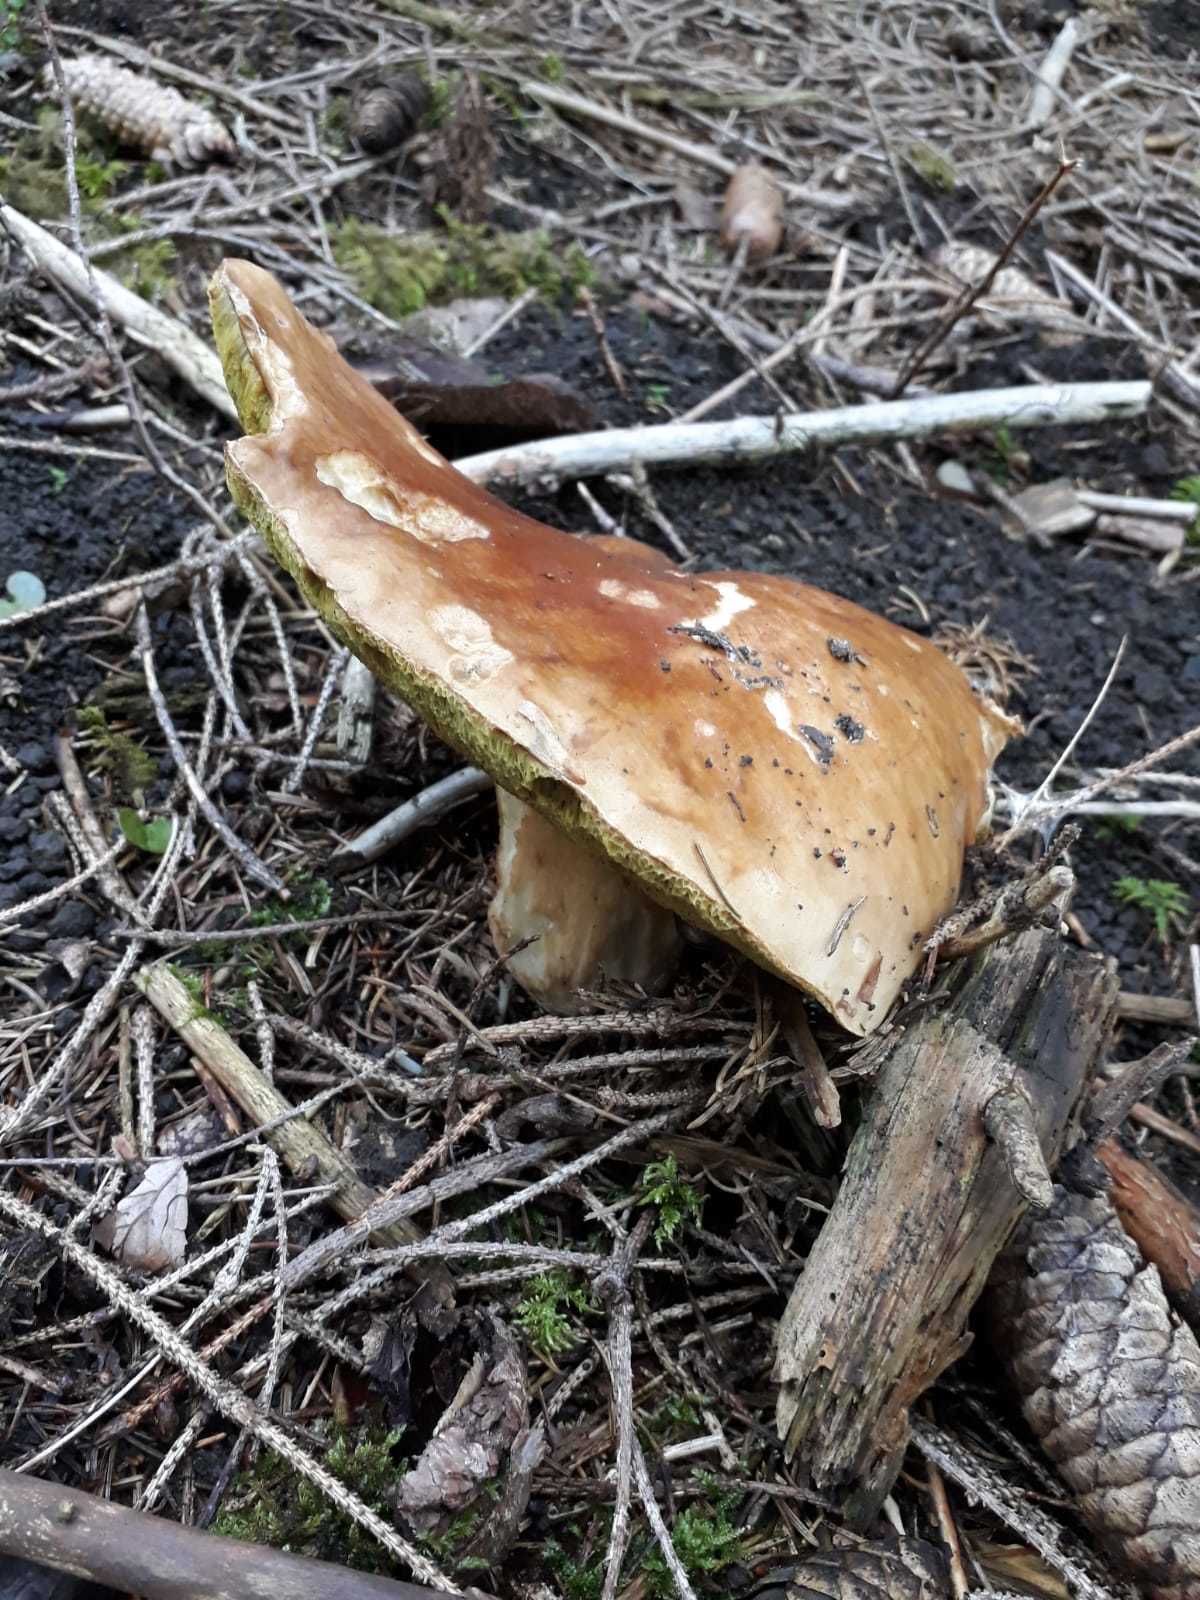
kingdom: Fungi
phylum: Basidiomycota
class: Agaricomycetes
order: Boletales
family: Boletaceae
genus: Boletus
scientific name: Boletus edulis
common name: Cep
